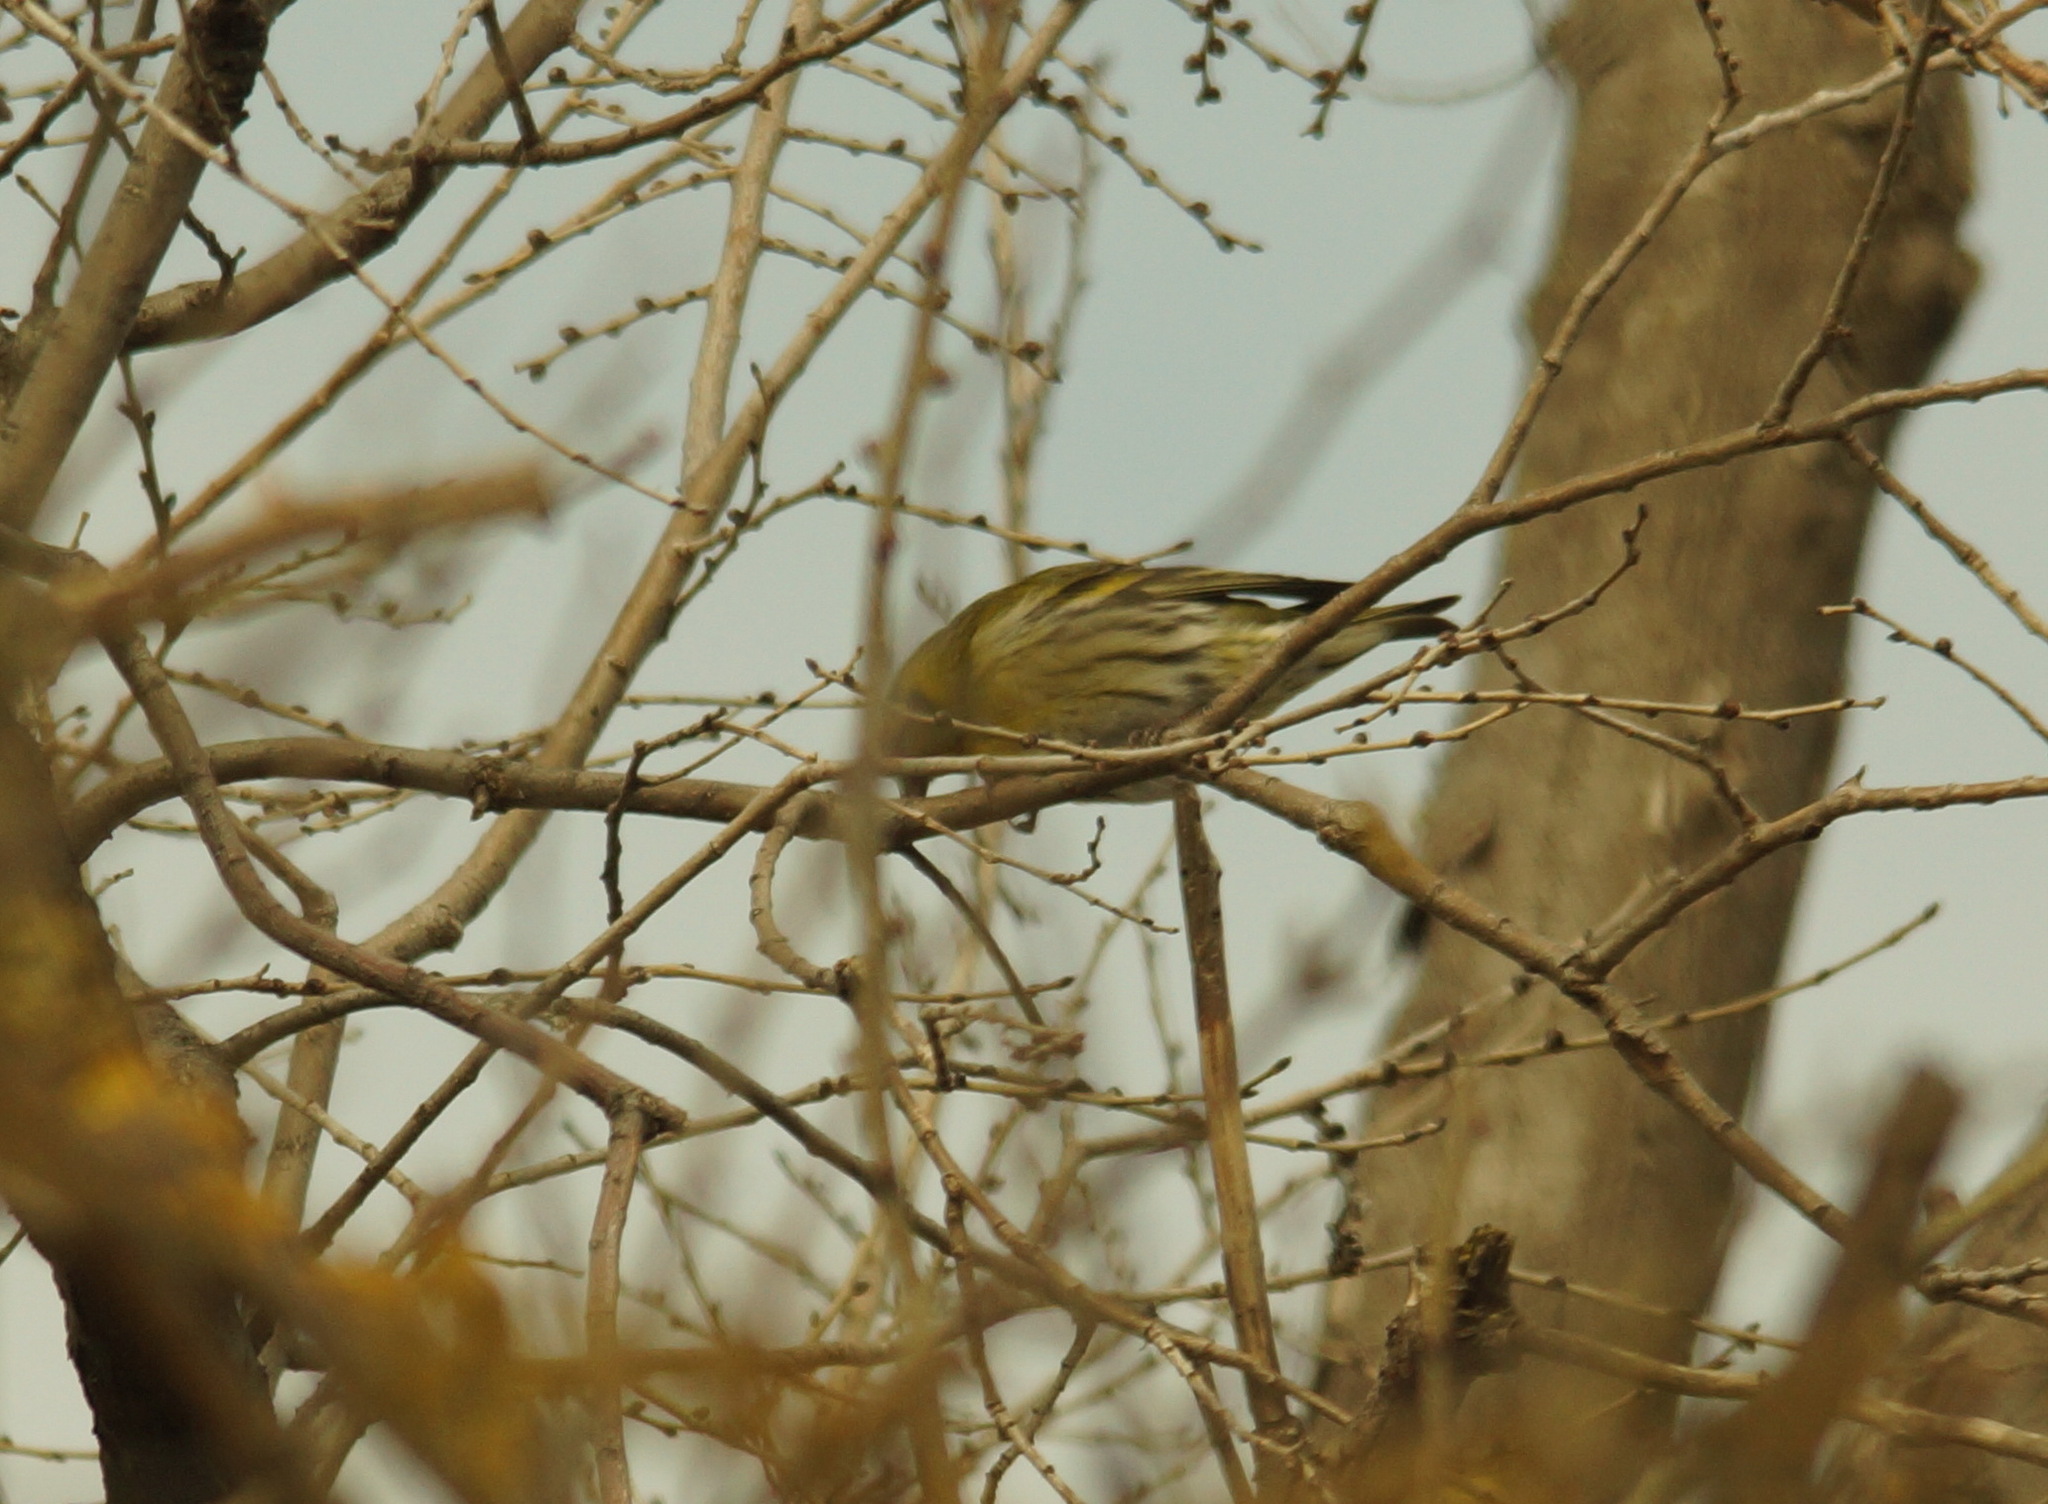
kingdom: Animalia
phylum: Chordata
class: Aves
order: Passeriformes
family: Fringillidae
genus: Spinus
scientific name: Spinus spinus
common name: Eurasian siskin
